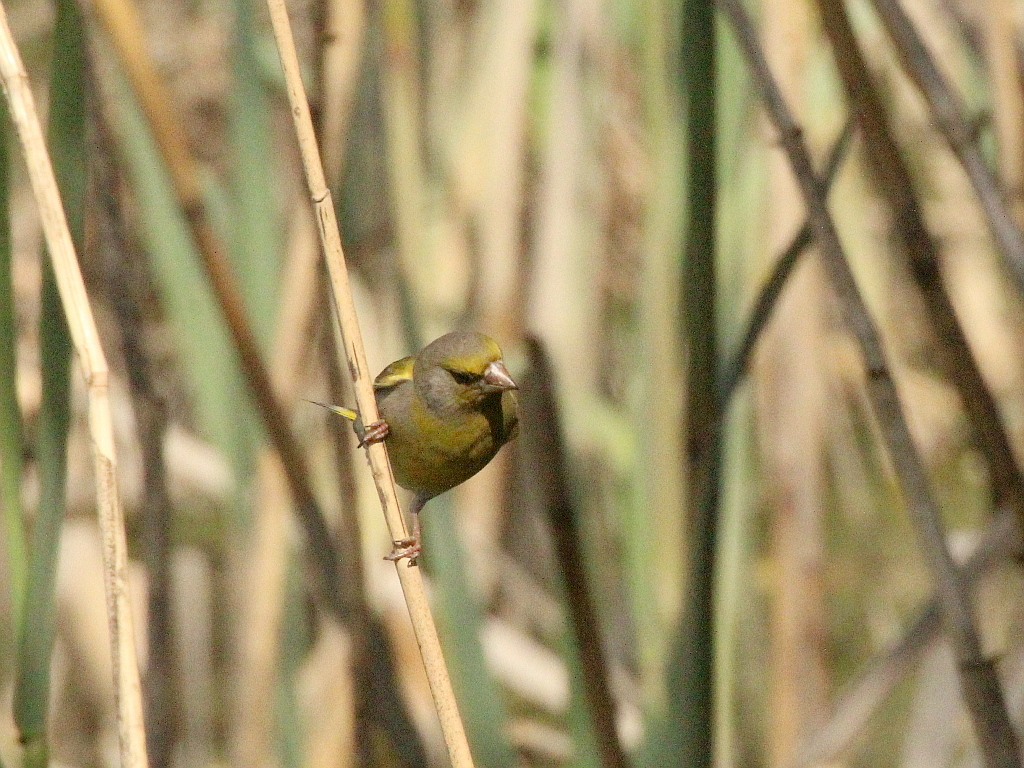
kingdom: Plantae
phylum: Tracheophyta
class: Liliopsida
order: Poales
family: Poaceae
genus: Chloris
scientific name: Chloris chloris
